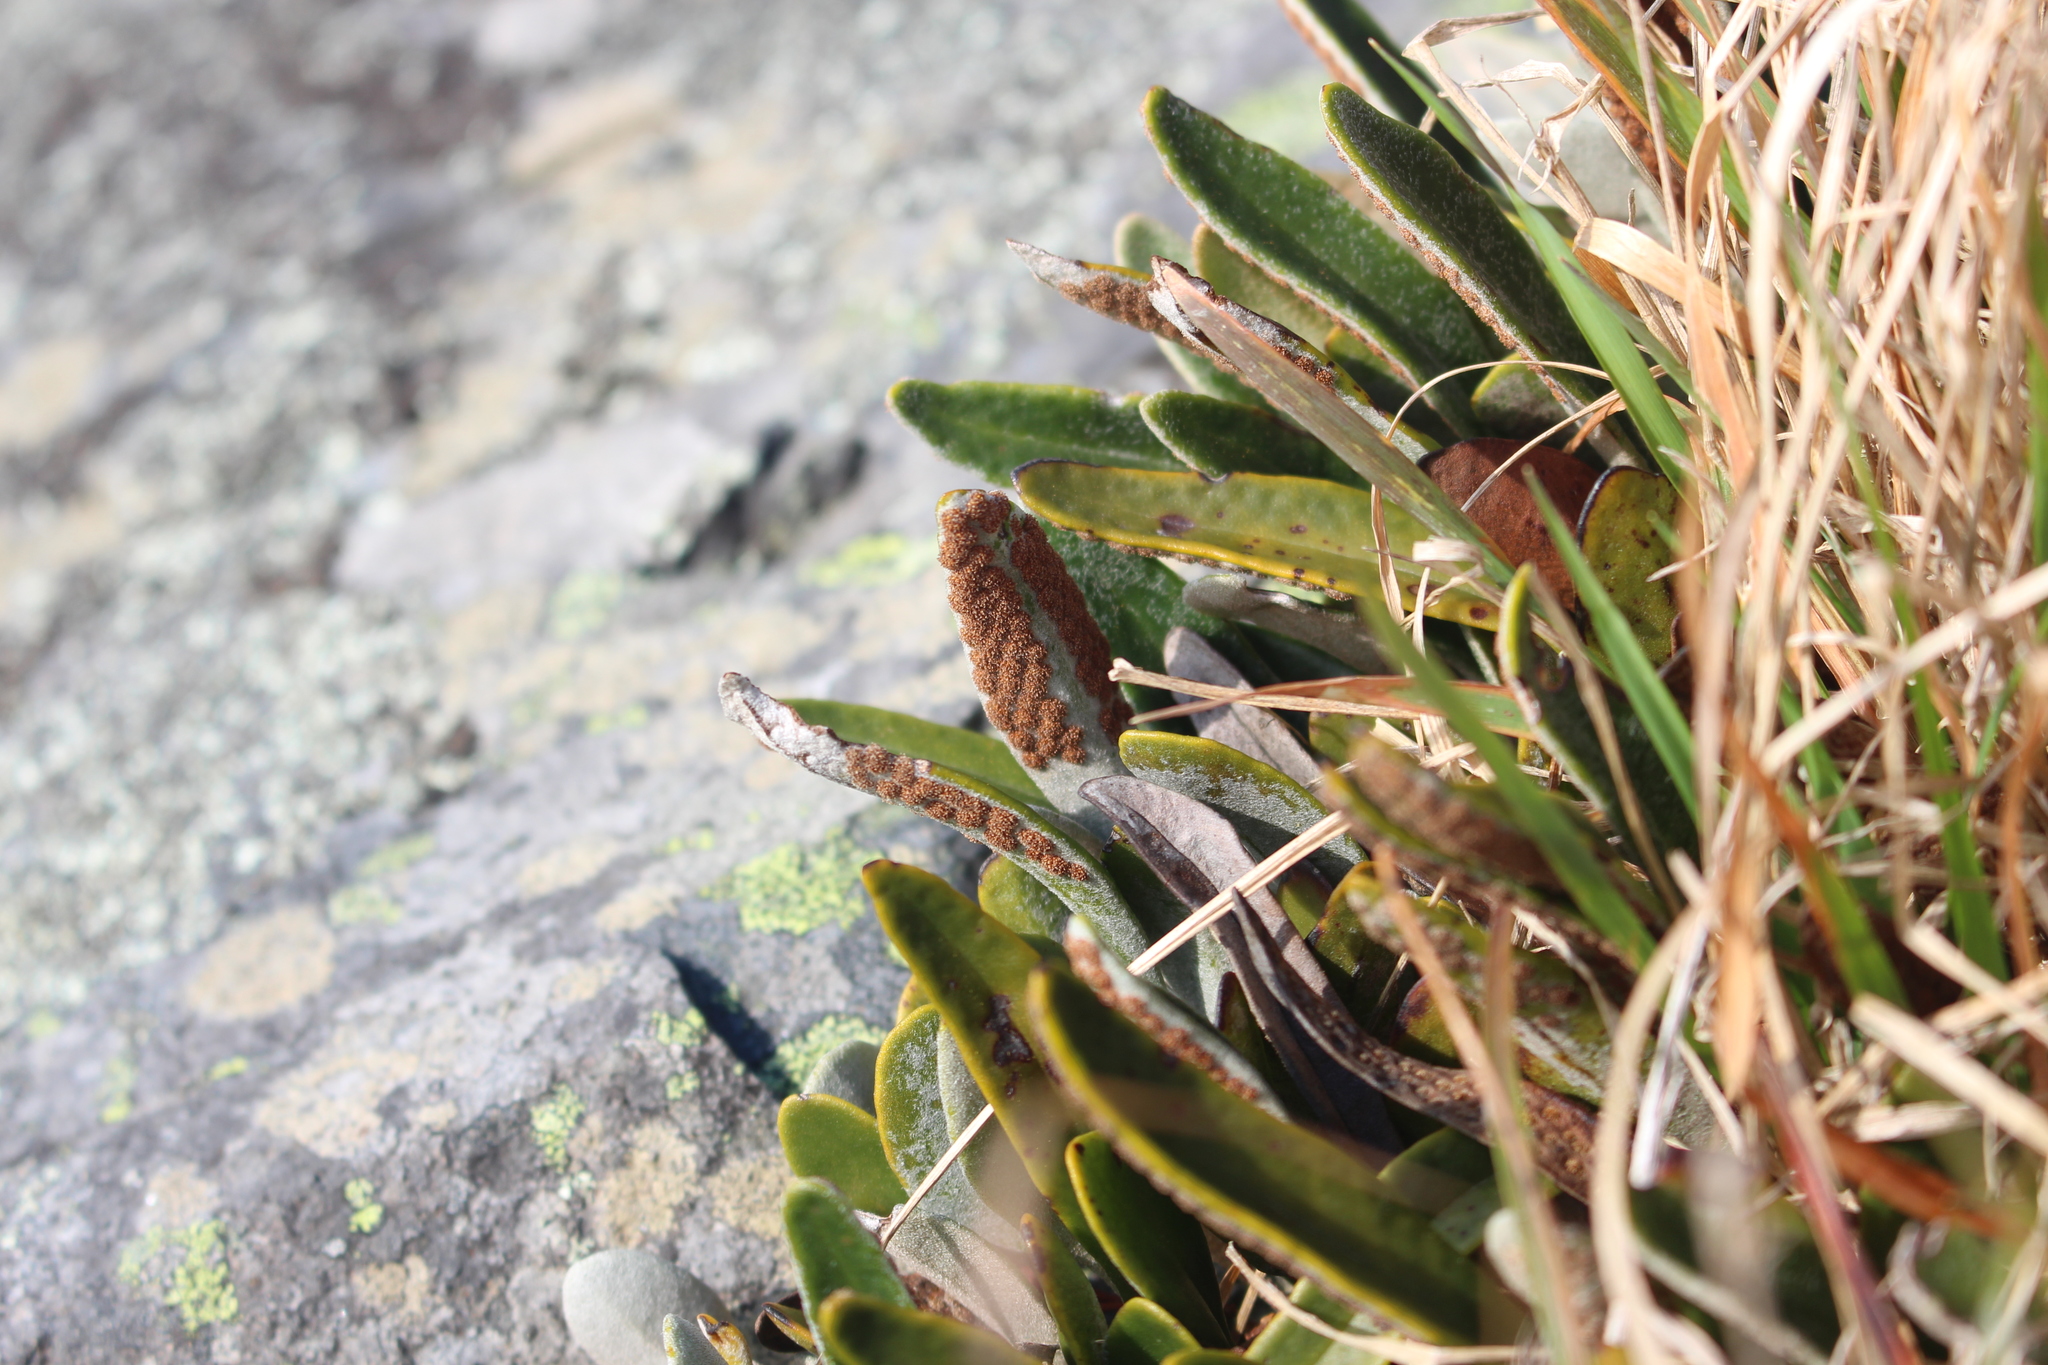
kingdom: Plantae
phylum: Tracheophyta
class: Polypodiopsida
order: Polypodiales
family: Polypodiaceae
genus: Pyrrosia
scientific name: Pyrrosia eleagnifolia
